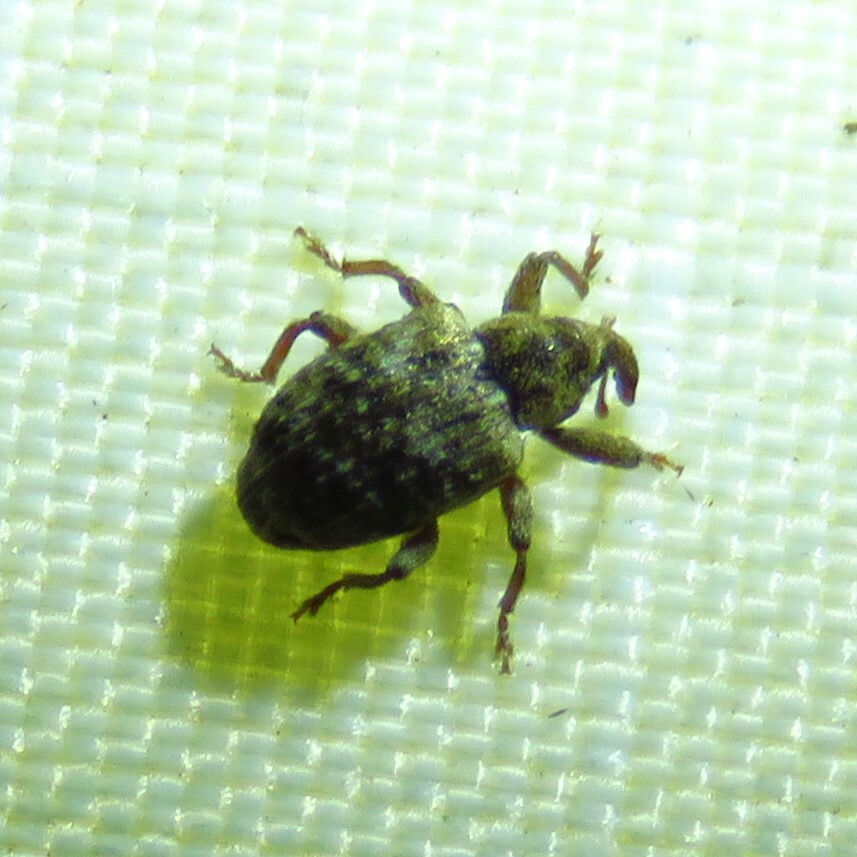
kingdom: Animalia
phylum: Arthropoda
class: Insecta
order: Coleoptera
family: Curculionidae
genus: Conotrachelus
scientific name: Conotrachelus recessus
